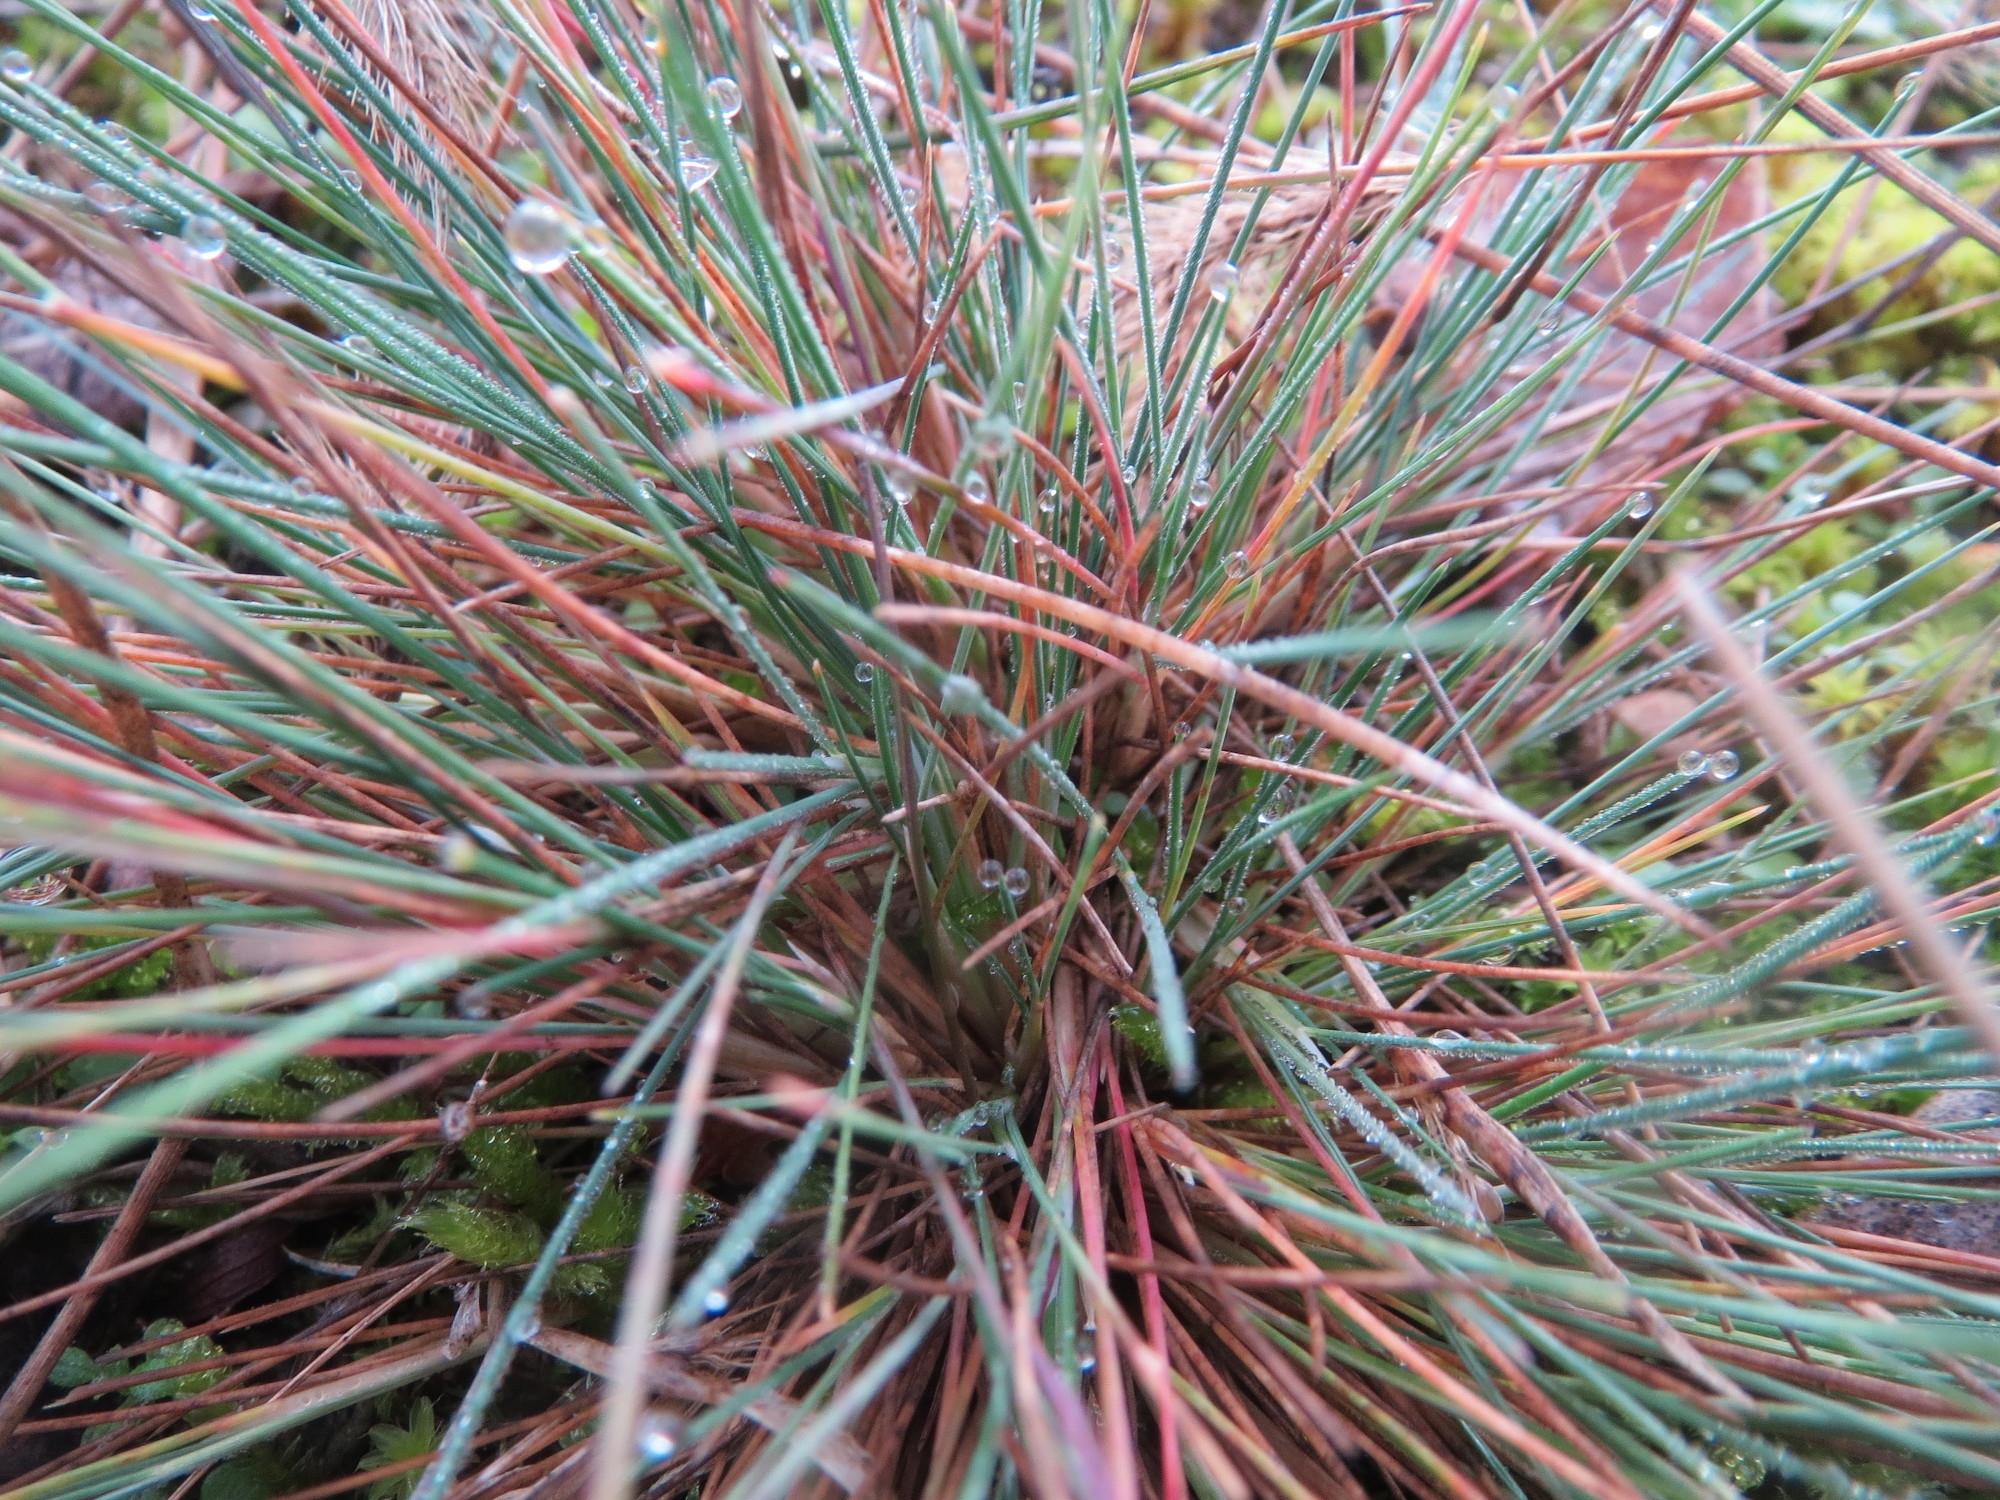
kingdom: Plantae
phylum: Tracheophyta
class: Liliopsida
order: Poales
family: Poaceae
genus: Corynephorus
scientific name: Corynephorus canescens
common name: Grey hair-grass
